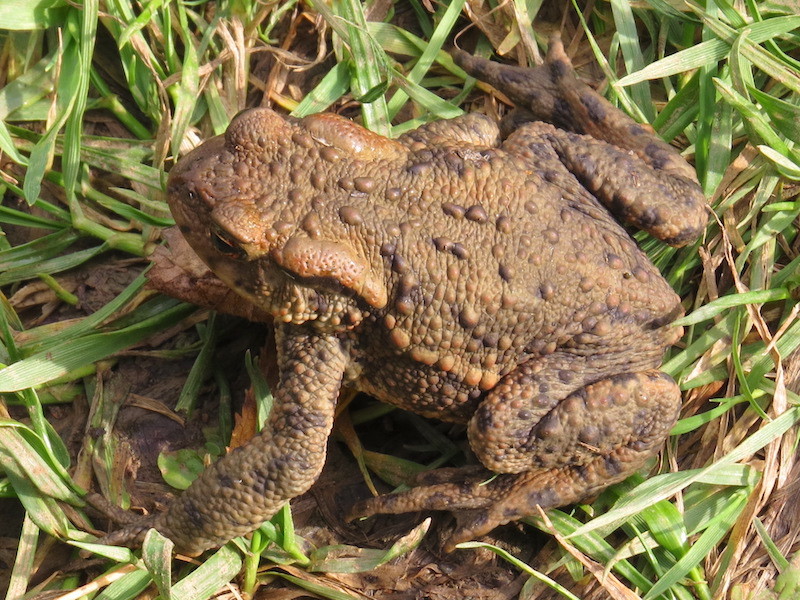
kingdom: Animalia
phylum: Chordata
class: Amphibia
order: Anura
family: Bufonidae
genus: Bufo
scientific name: Bufo bufo
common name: Common toad
